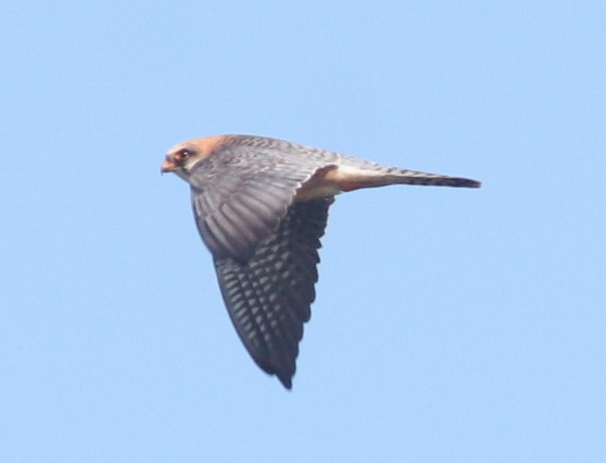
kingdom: Animalia
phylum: Chordata
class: Aves
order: Falconiformes
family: Falconidae
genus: Falco
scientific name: Falco vespertinus
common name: Red-footed falcon
